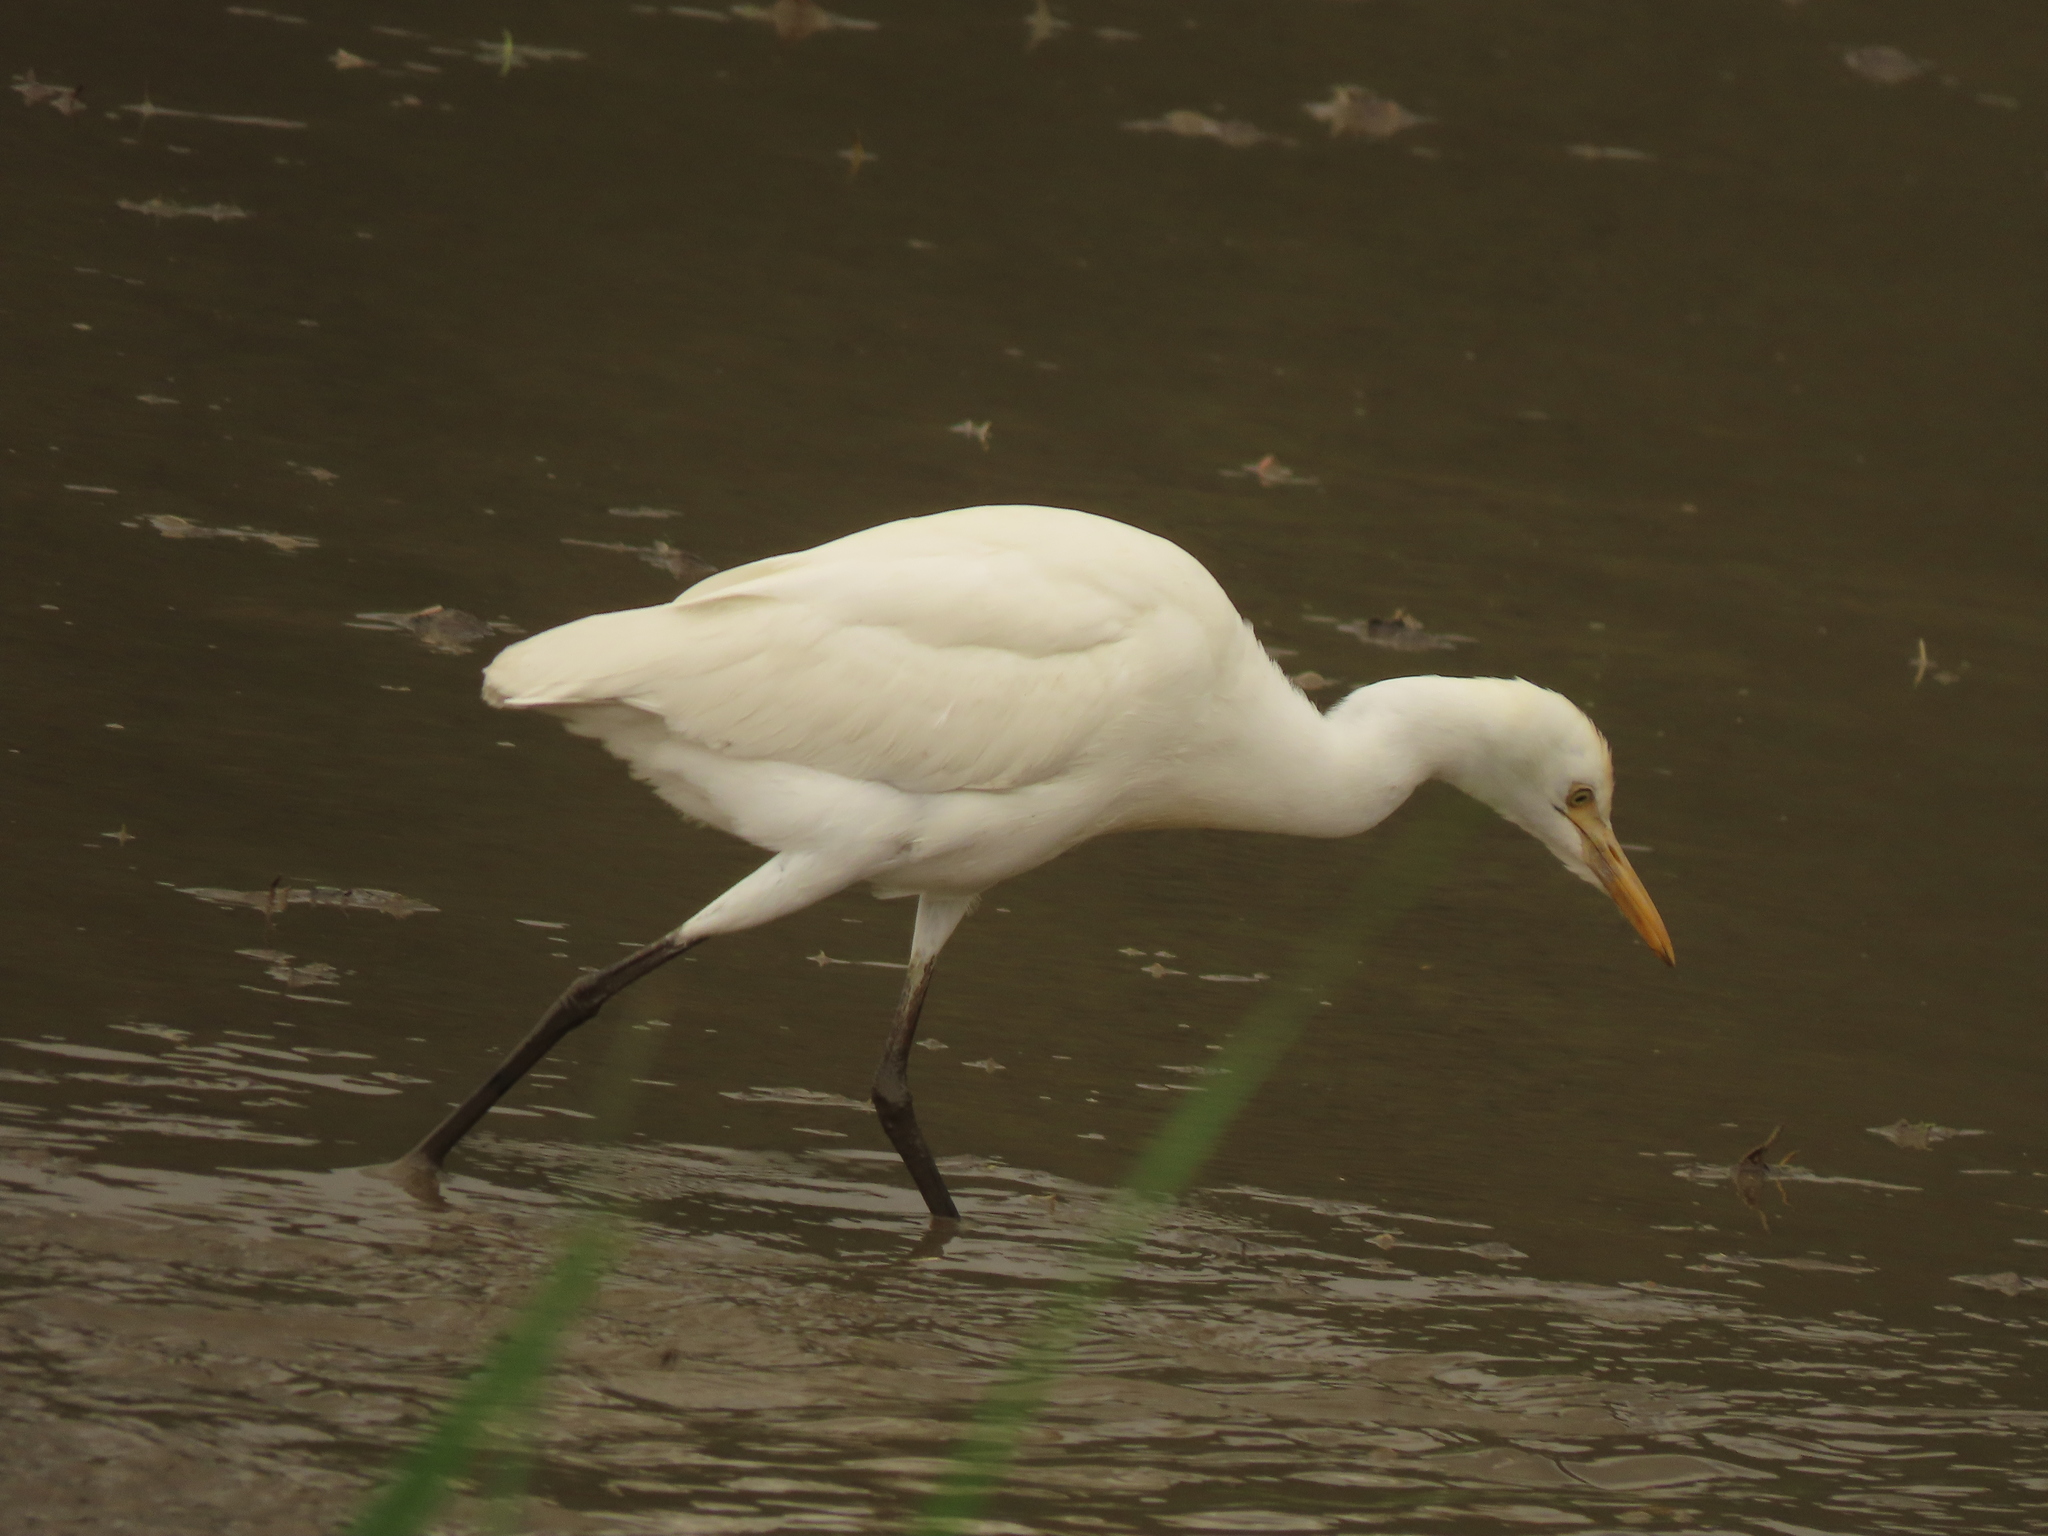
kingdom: Animalia
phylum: Chordata
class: Aves
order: Pelecaniformes
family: Ardeidae
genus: Bubulcus
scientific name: Bubulcus coromandus
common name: Eastern cattle egret
